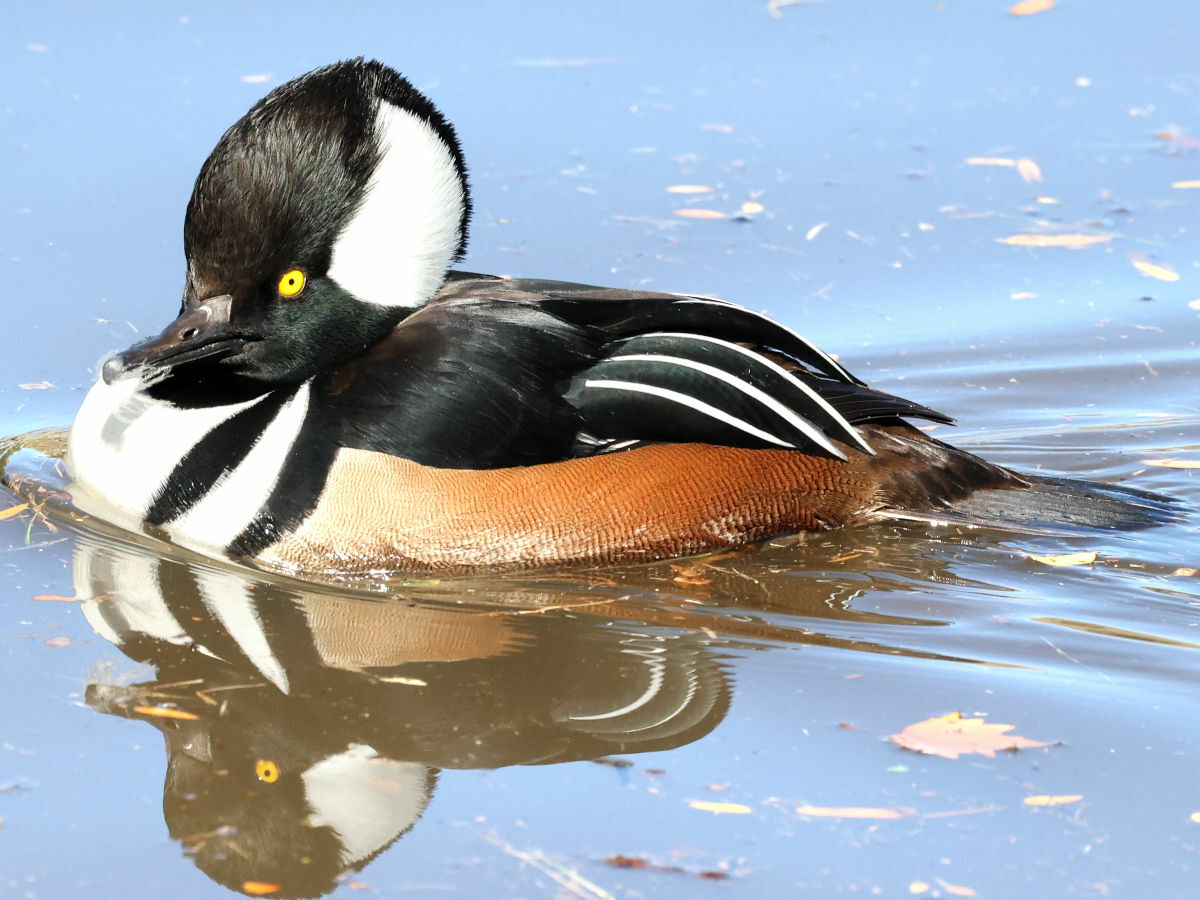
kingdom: Animalia
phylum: Chordata
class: Aves
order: Anseriformes
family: Anatidae
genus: Lophodytes
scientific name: Lophodytes cucullatus
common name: Hooded merganser
